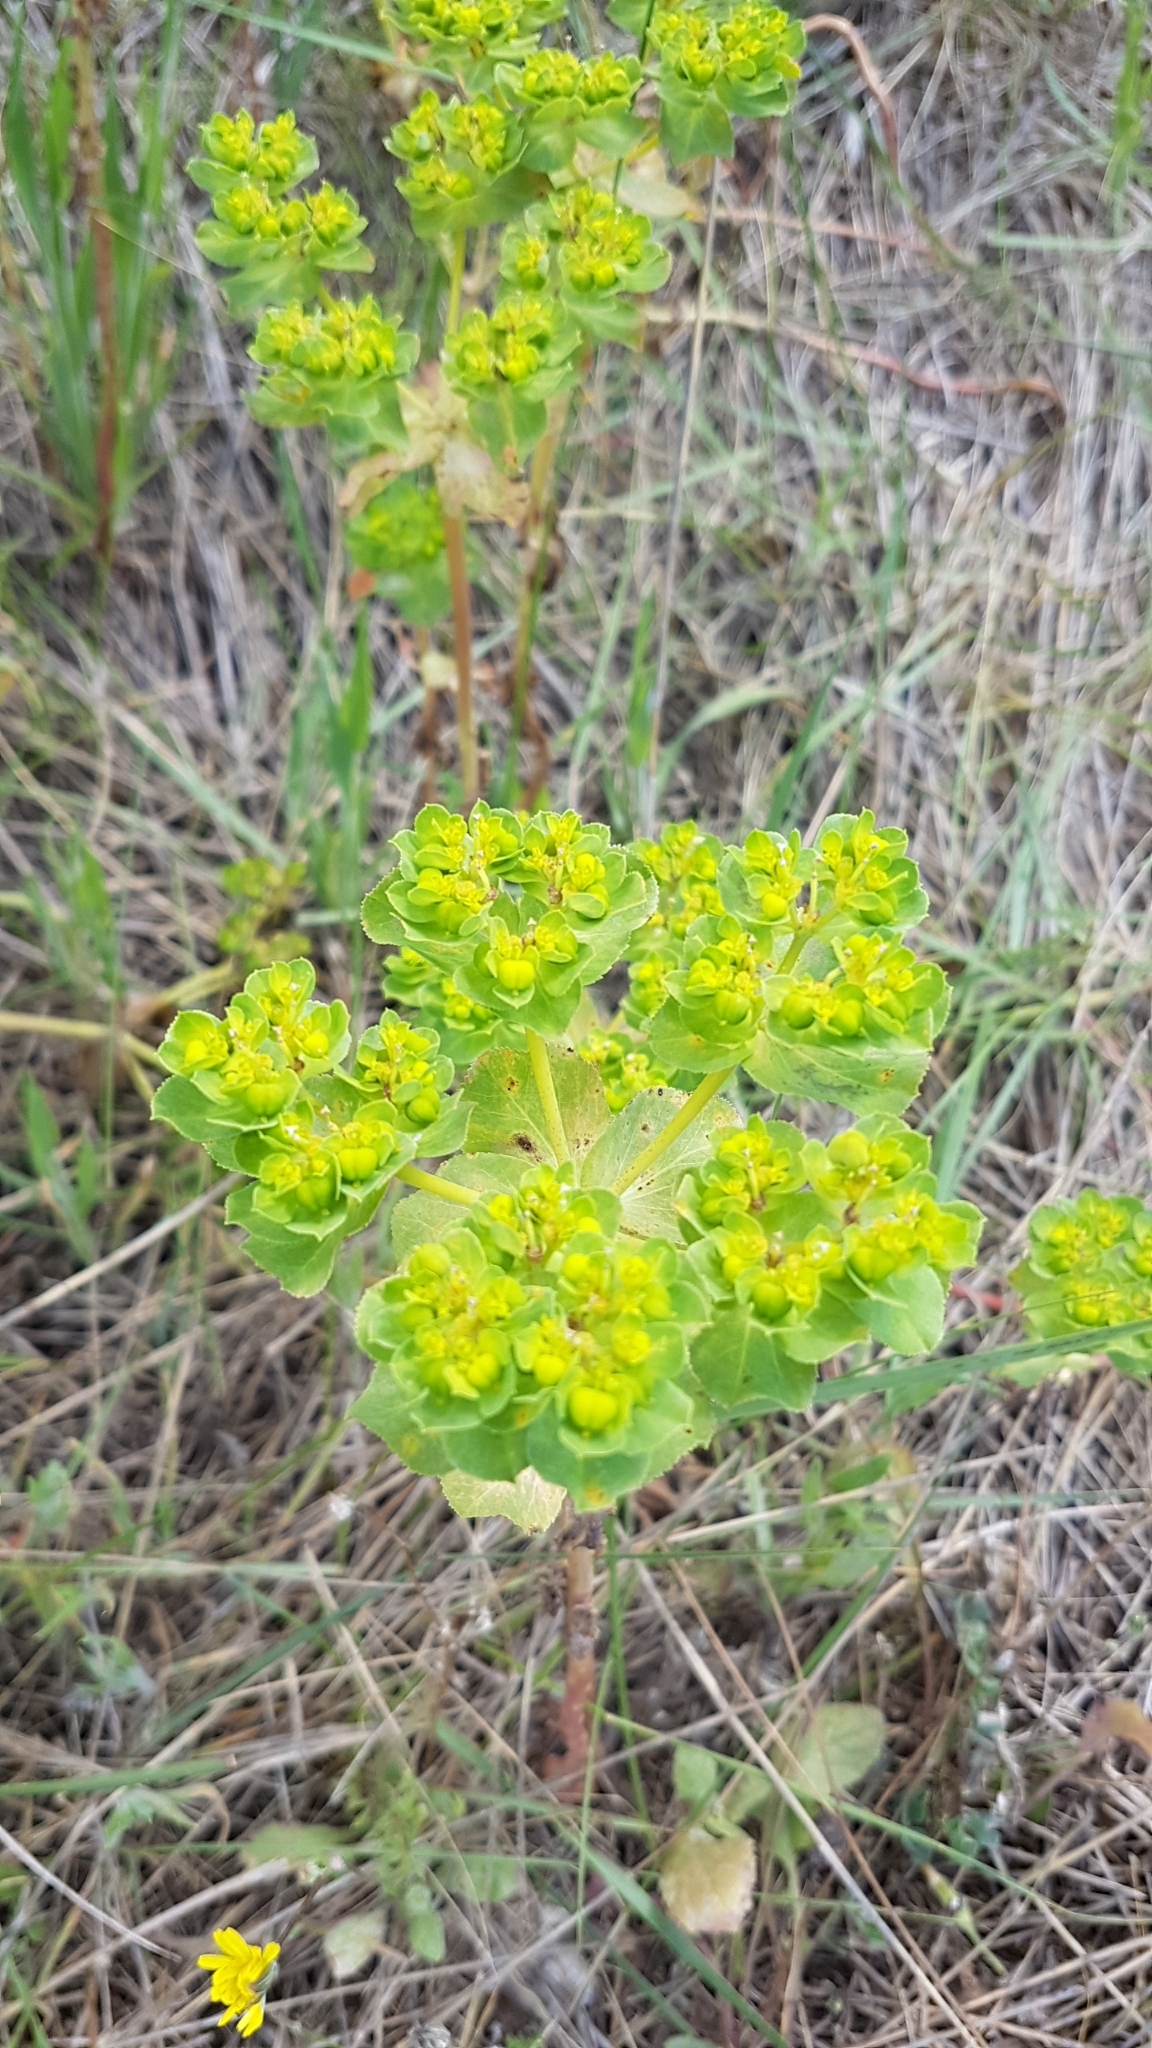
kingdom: Plantae
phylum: Tracheophyta
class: Magnoliopsida
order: Malpighiales
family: Euphorbiaceae
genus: Euphorbia
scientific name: Euphorbia helioscopia
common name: Sun spurge
